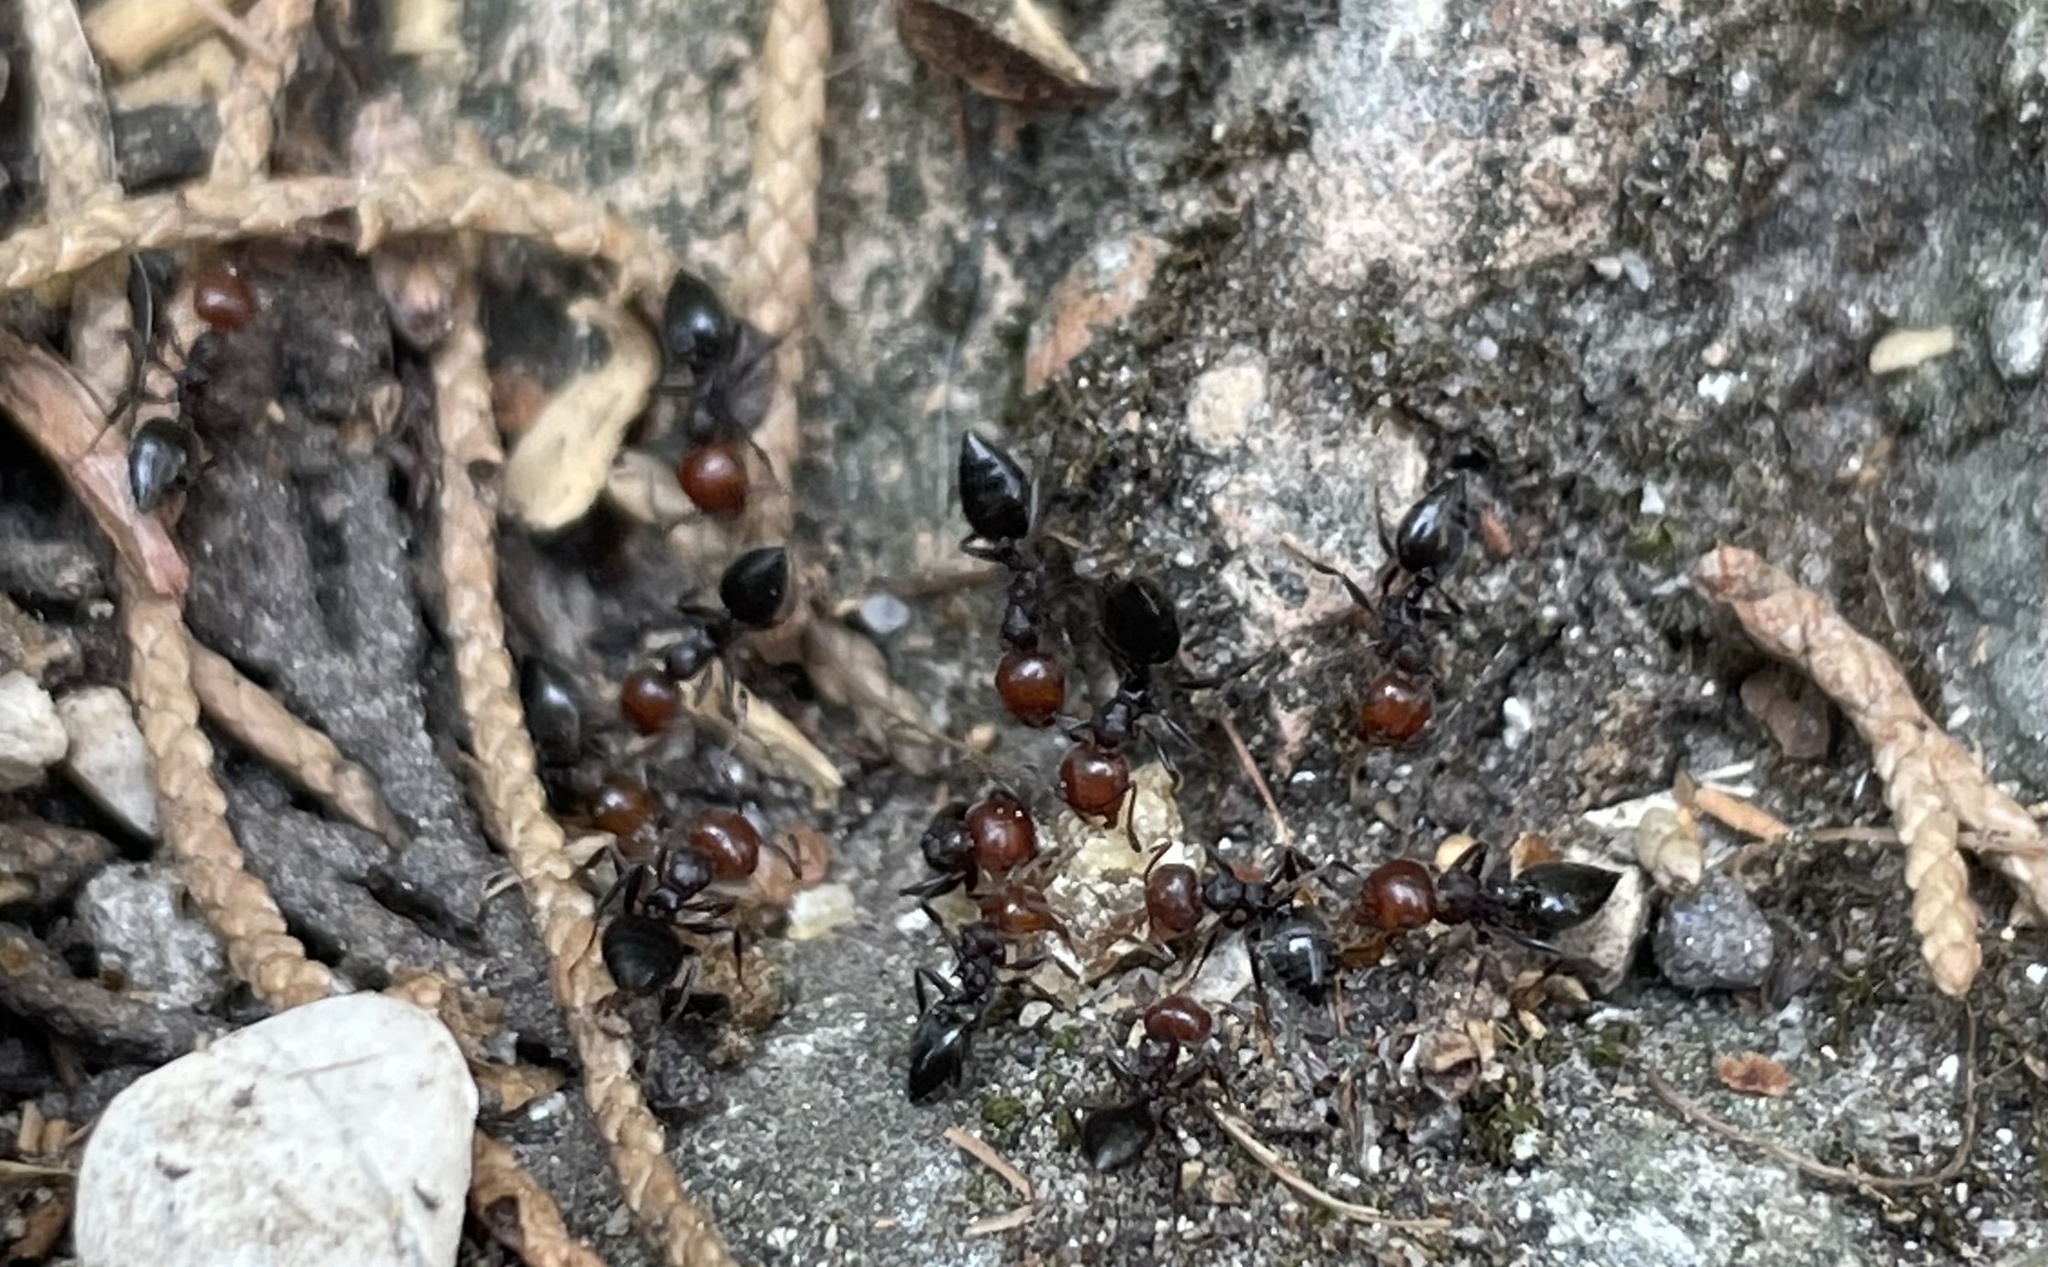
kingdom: Animalia
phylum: Arthropoda
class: Insecta
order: Hymenoptera
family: Formicidae
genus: Crematogaster
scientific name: Crematogaster scutellaris
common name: Fourmi du liège
